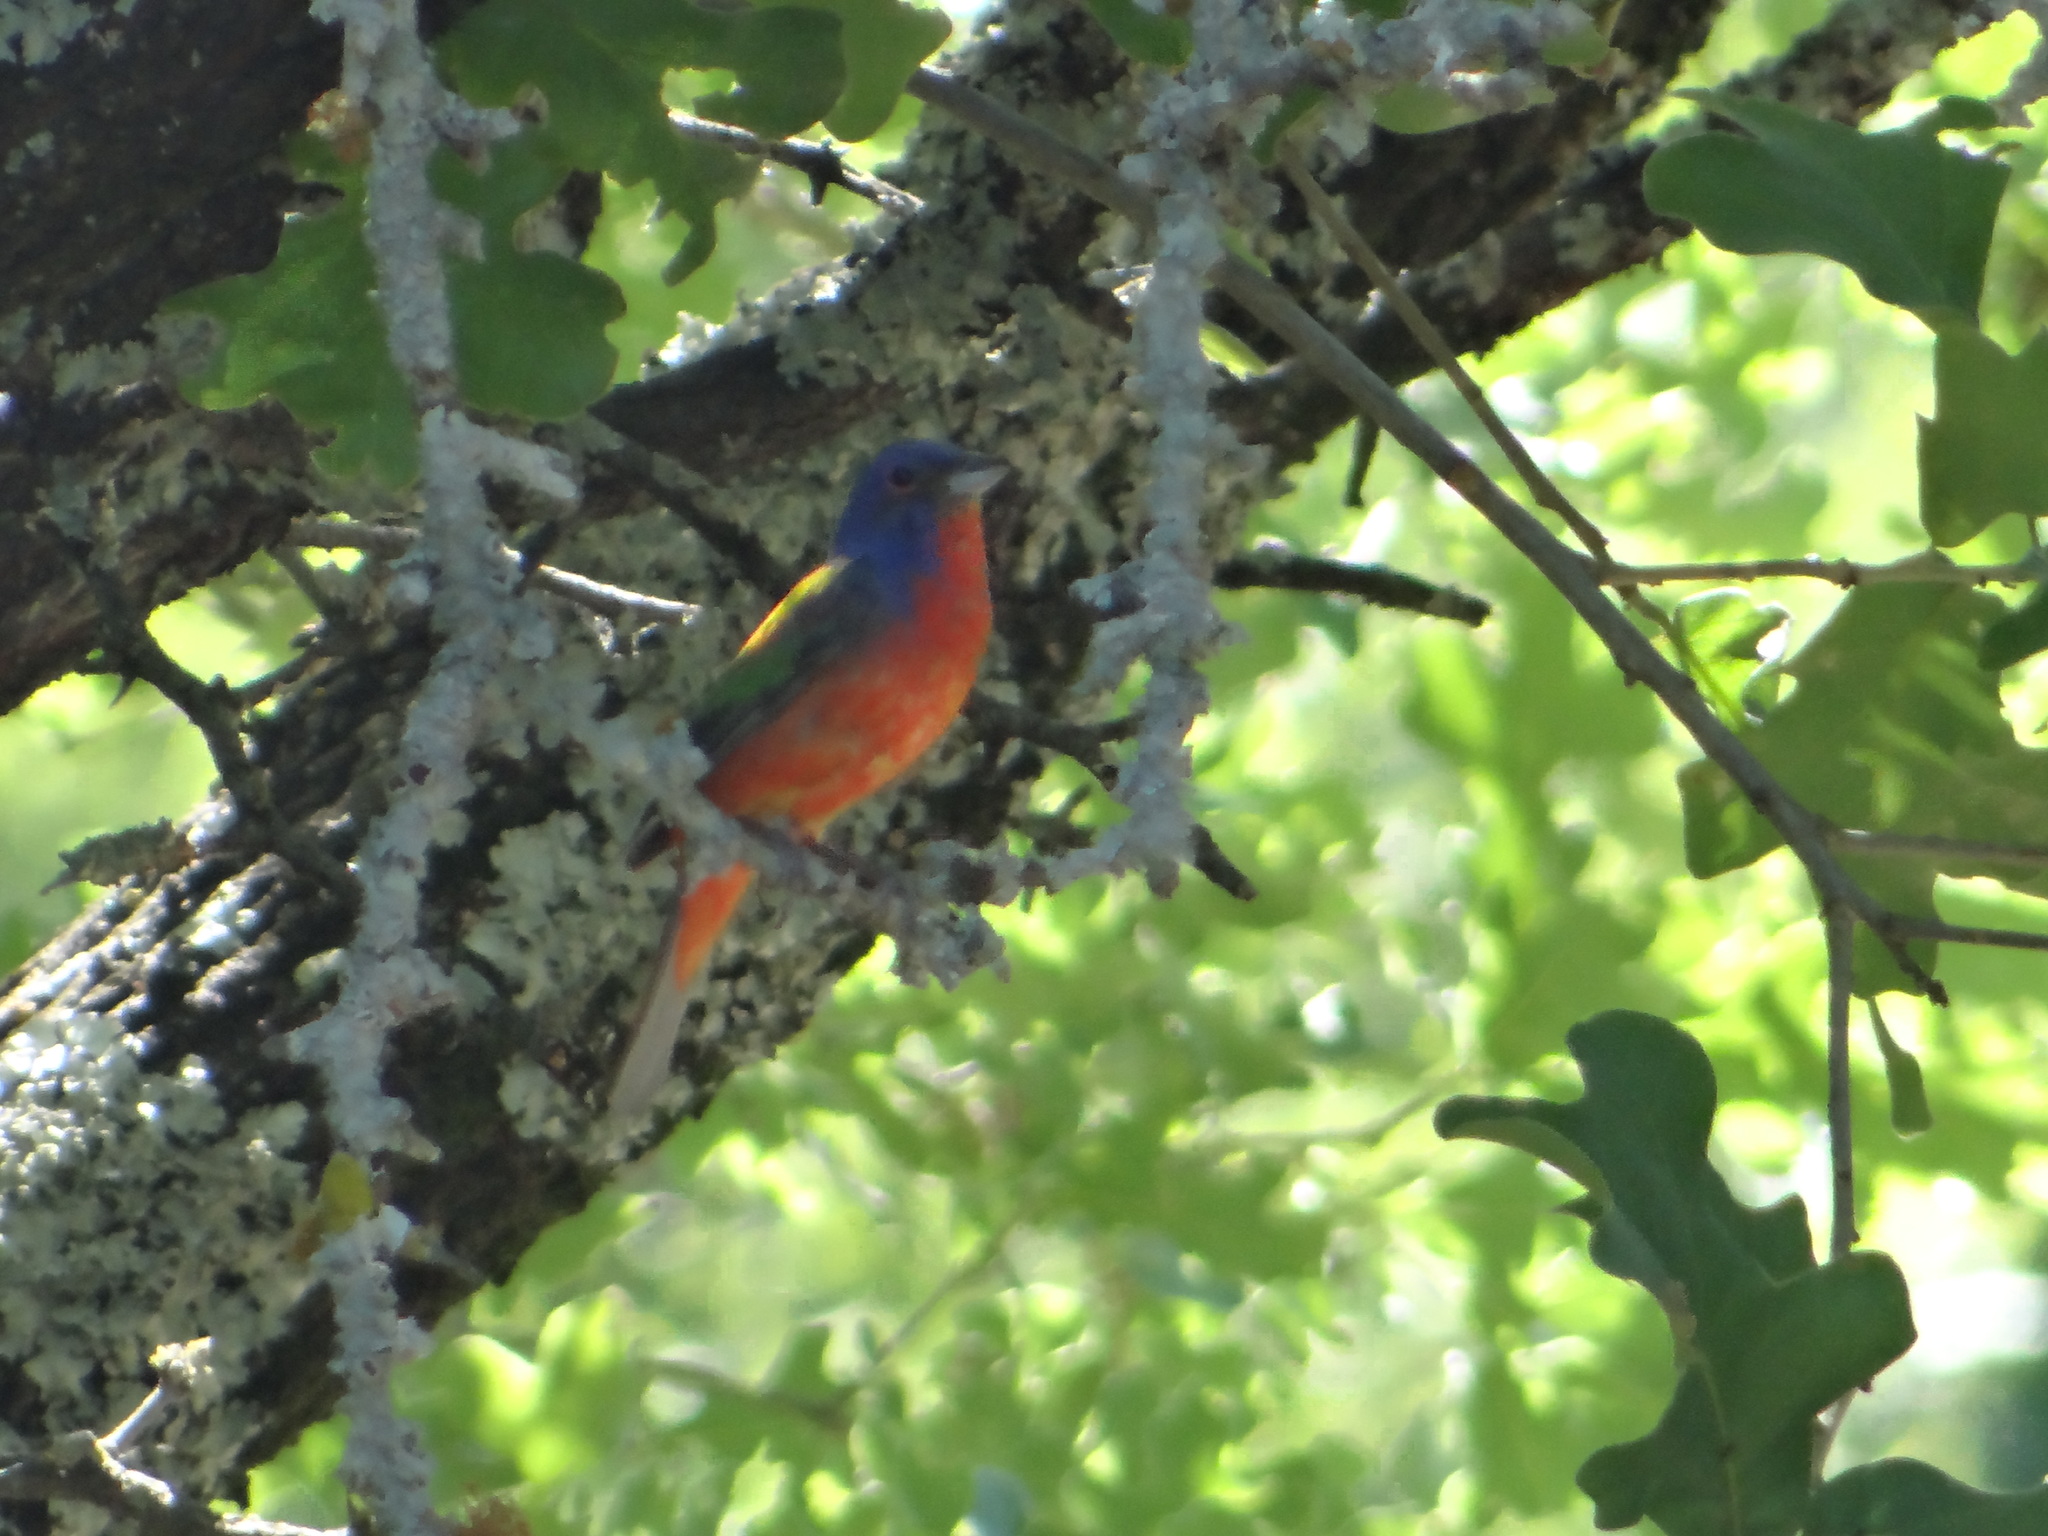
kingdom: Animalia
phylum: Chordata
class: Aves
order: Passeriformes
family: Cardinalidae
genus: Passerina
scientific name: Passerina ciris
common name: Painted bunting
